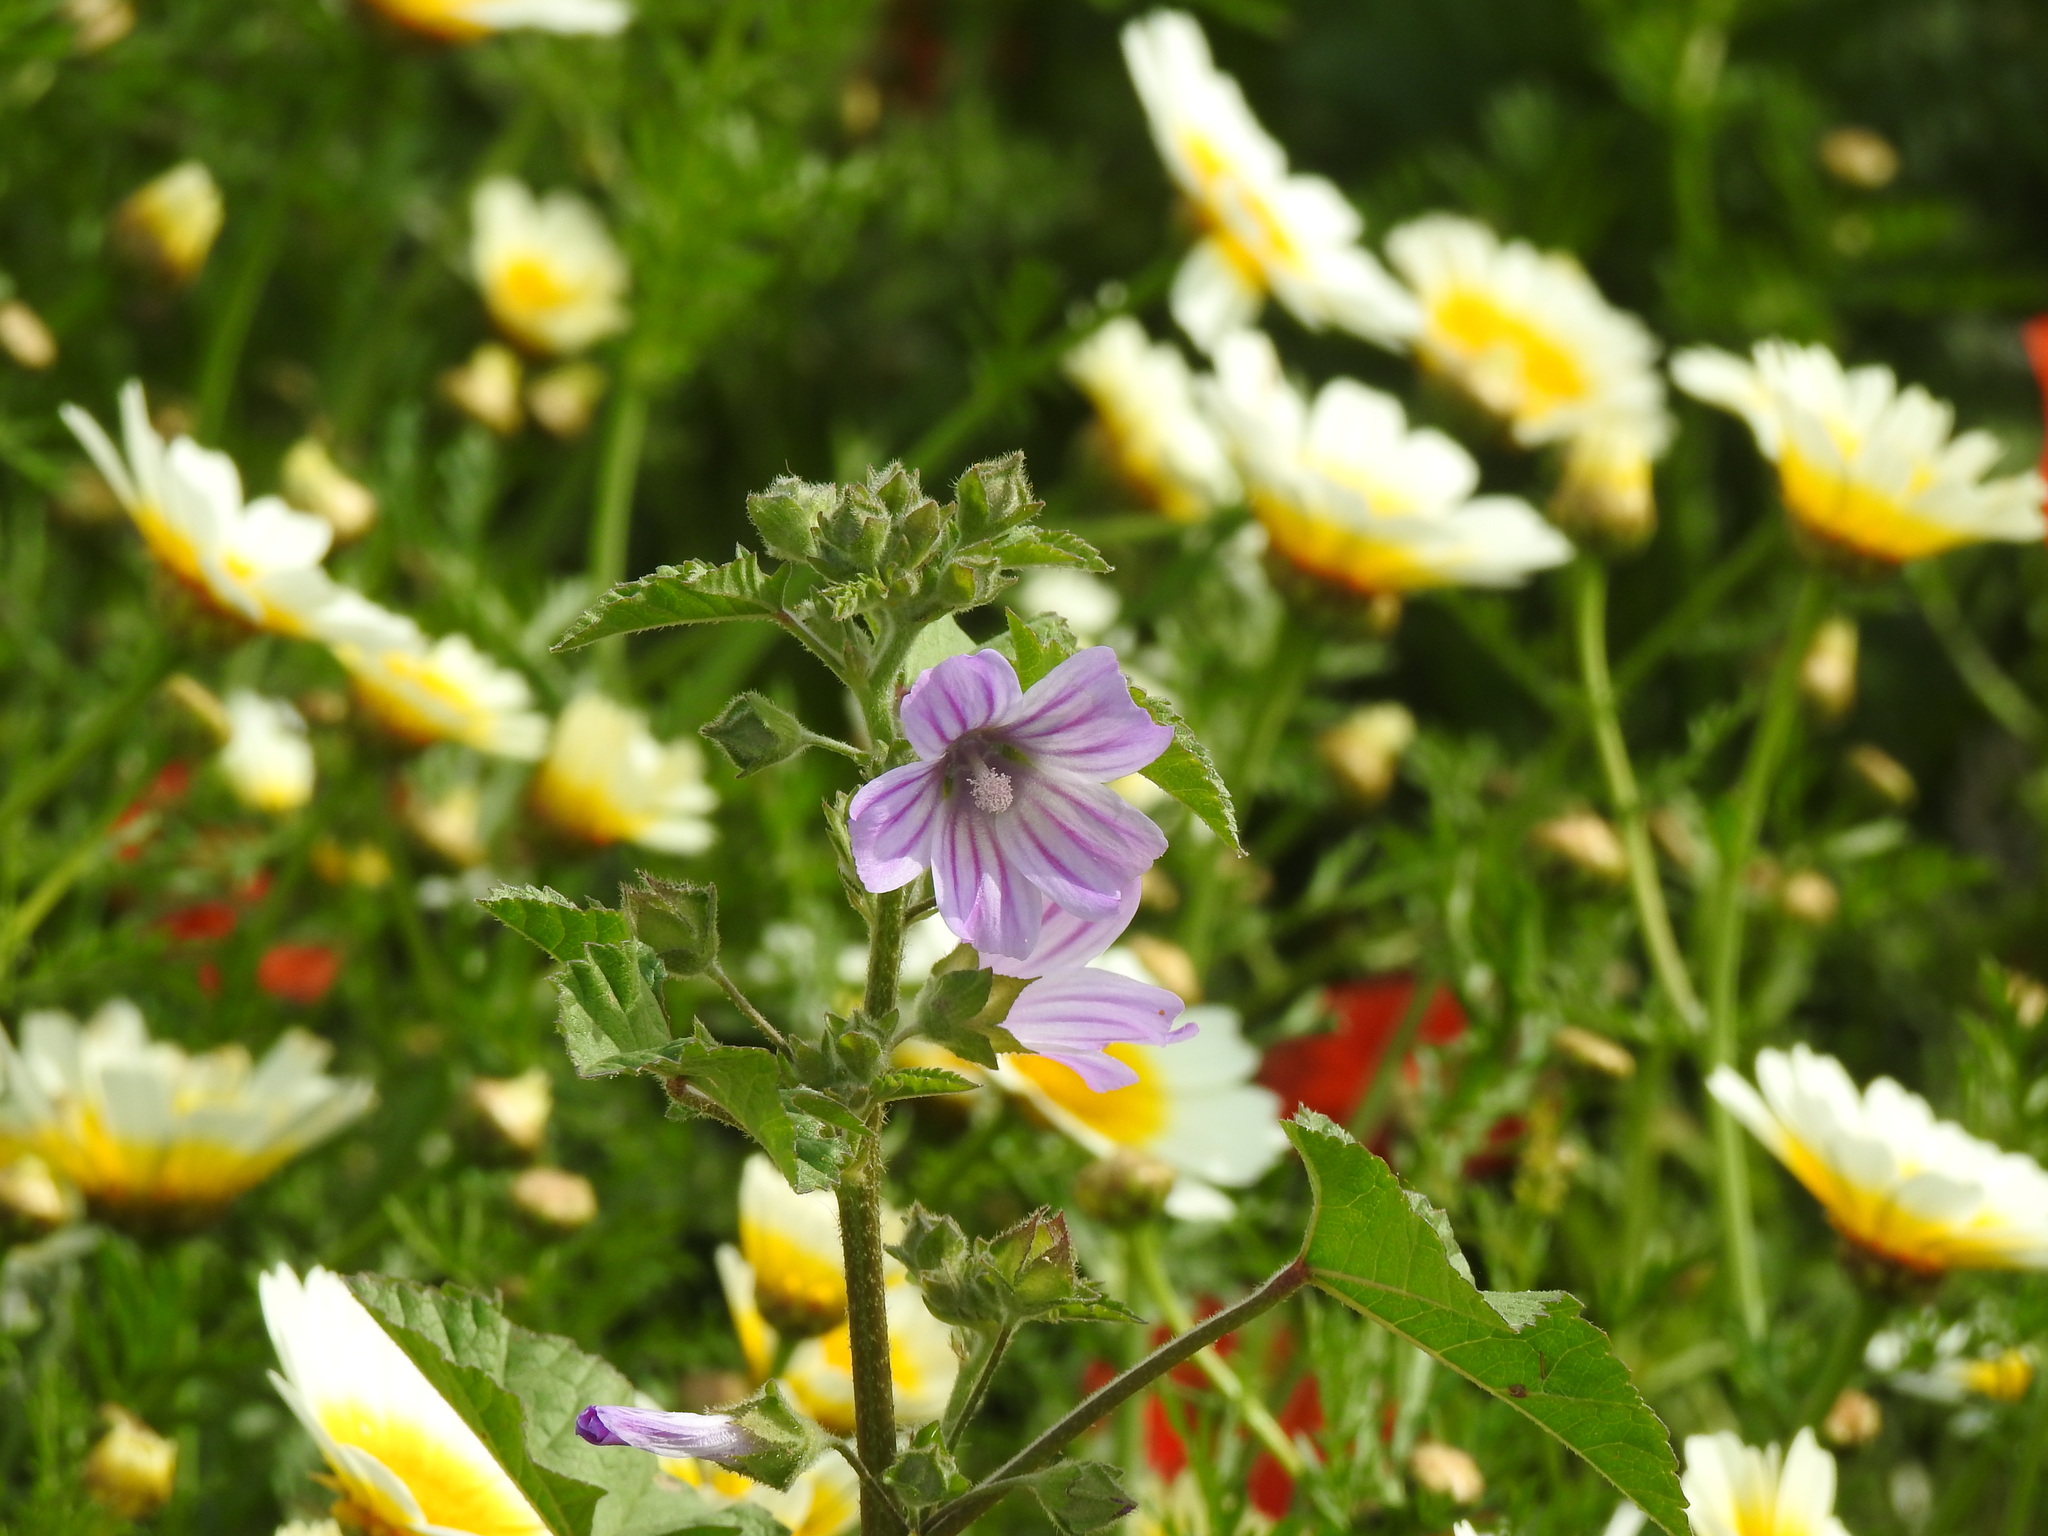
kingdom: Plantae
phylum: Tracheophyta
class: Magnoliopsida
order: Malvales
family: Malvaceae
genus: Malva
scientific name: Malva multiflora
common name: Cheeseweed
